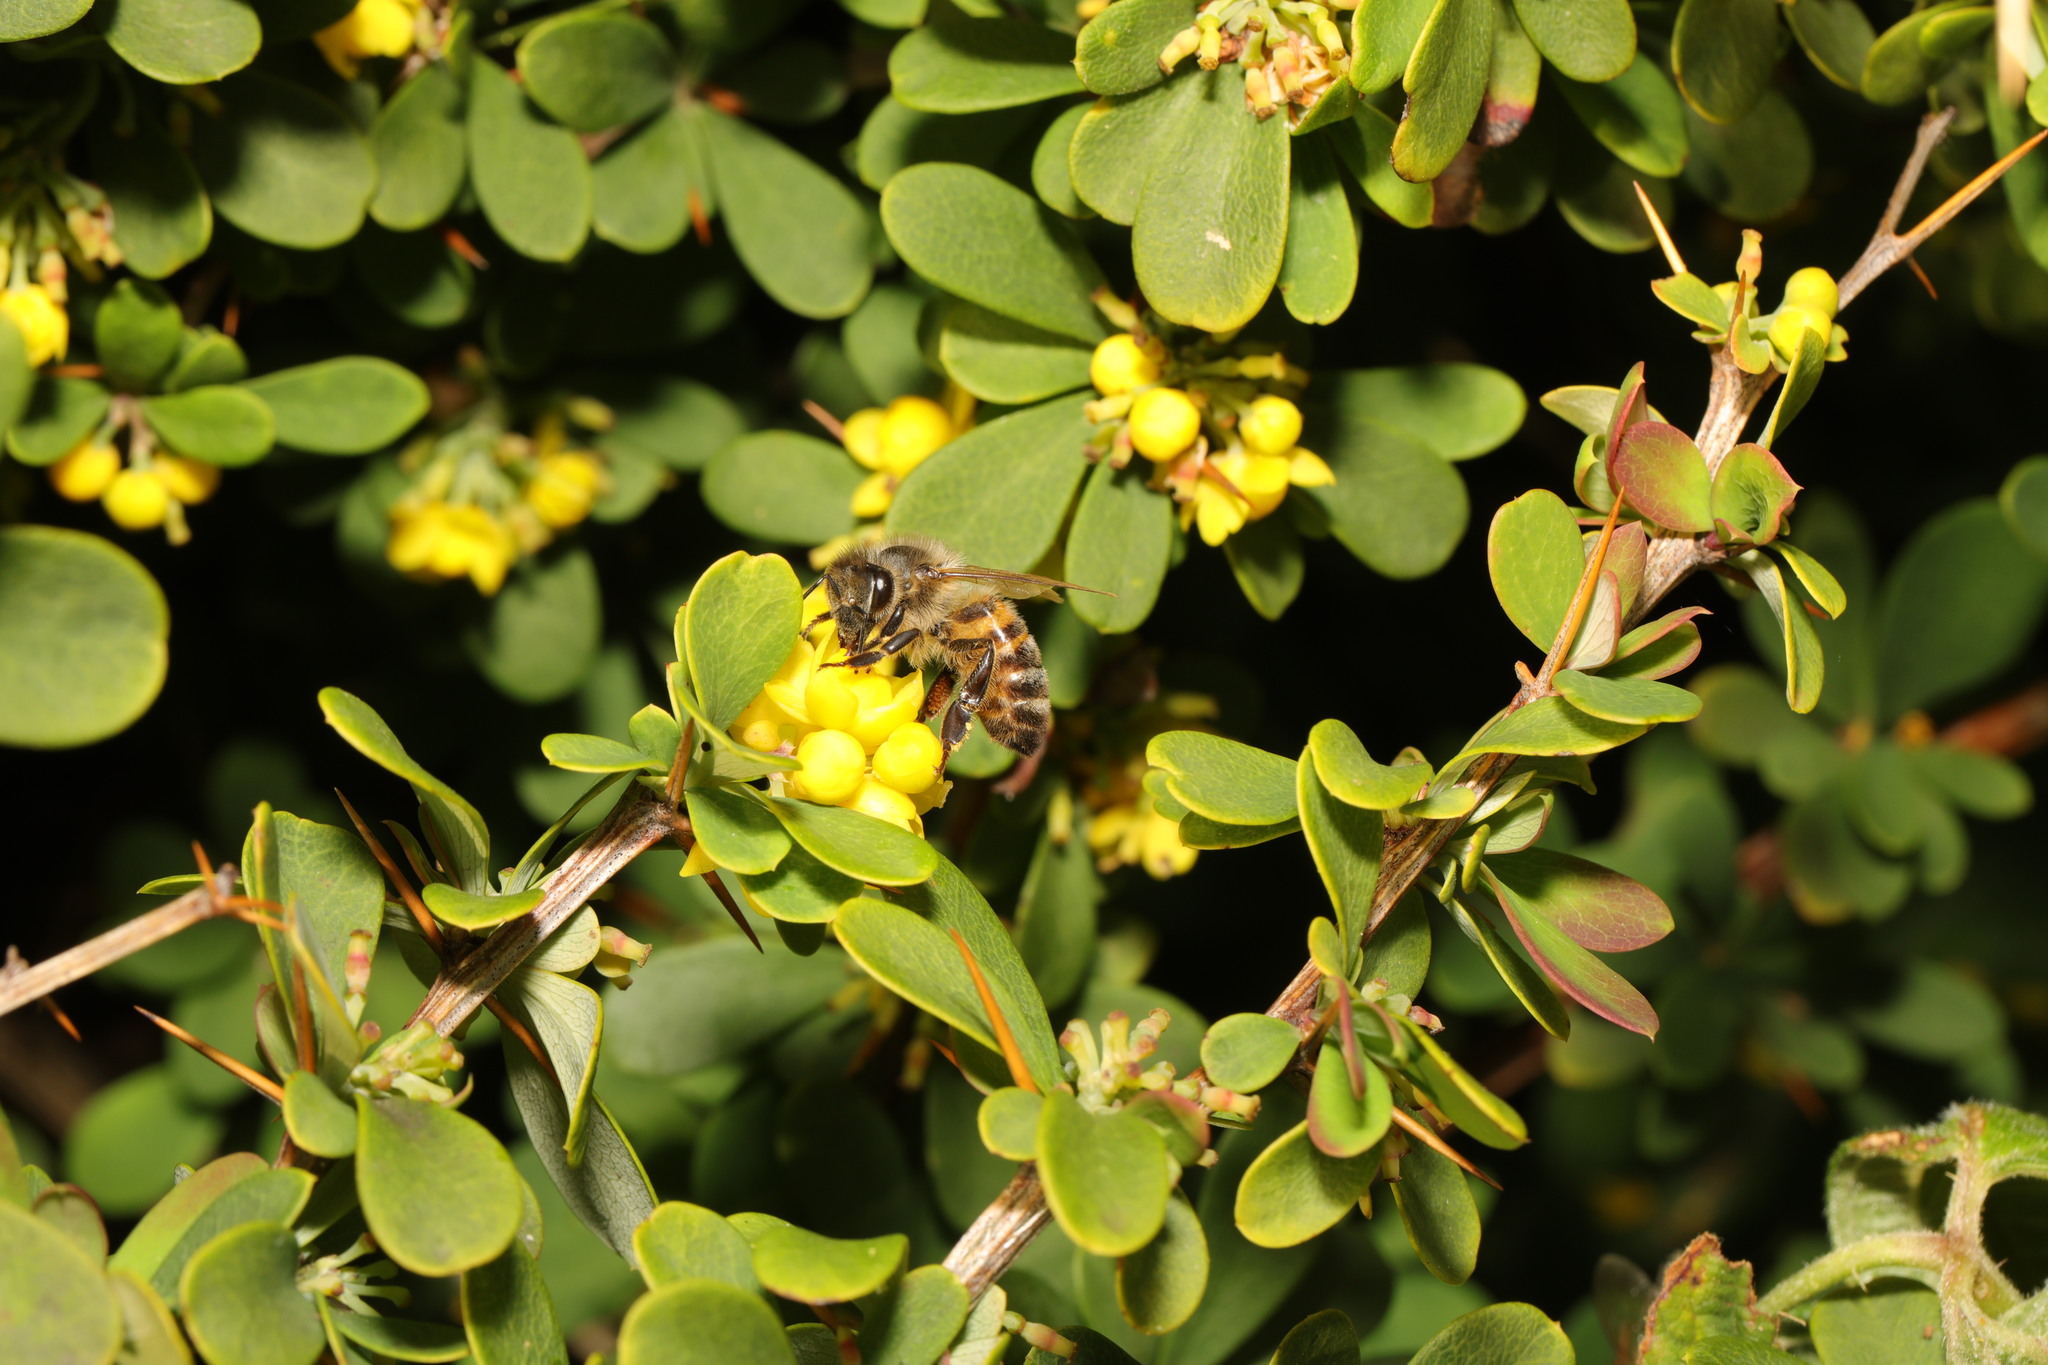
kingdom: Animalia
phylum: Arthropoda
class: Insecta
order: Hymenoptera
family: Apidae
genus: Apis
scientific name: Apis mellifera
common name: Honey bee
